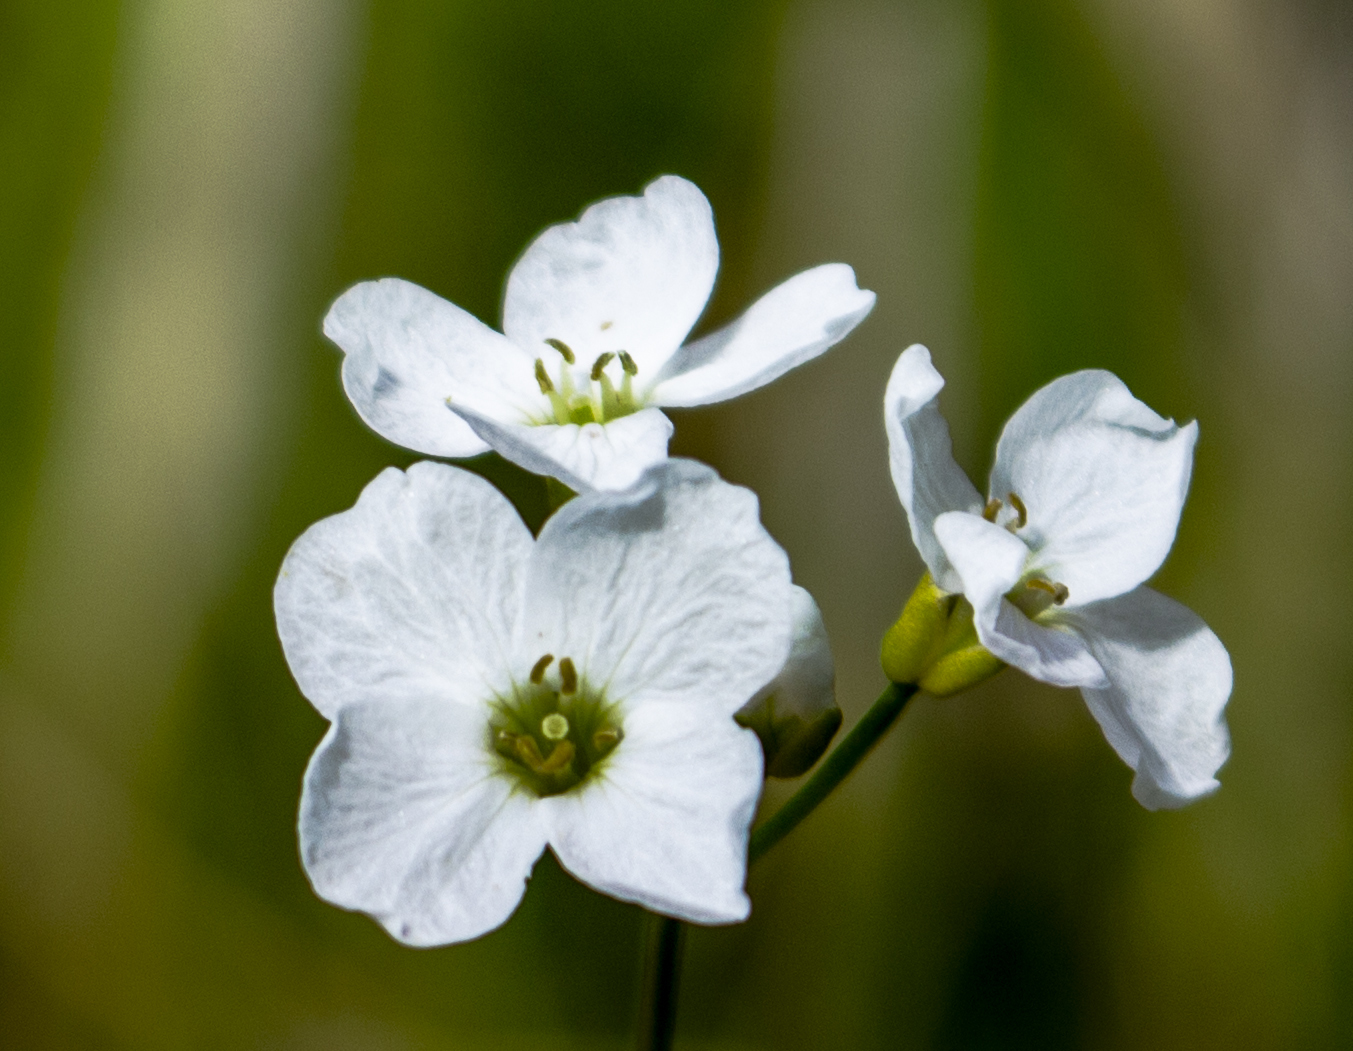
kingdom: Plantae
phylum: Tracheophyta
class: Magnoliopsida
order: Brassicales
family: Brassicaceae
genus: Cardamine
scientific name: Cardamine pratensis
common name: Cuckoo flower
